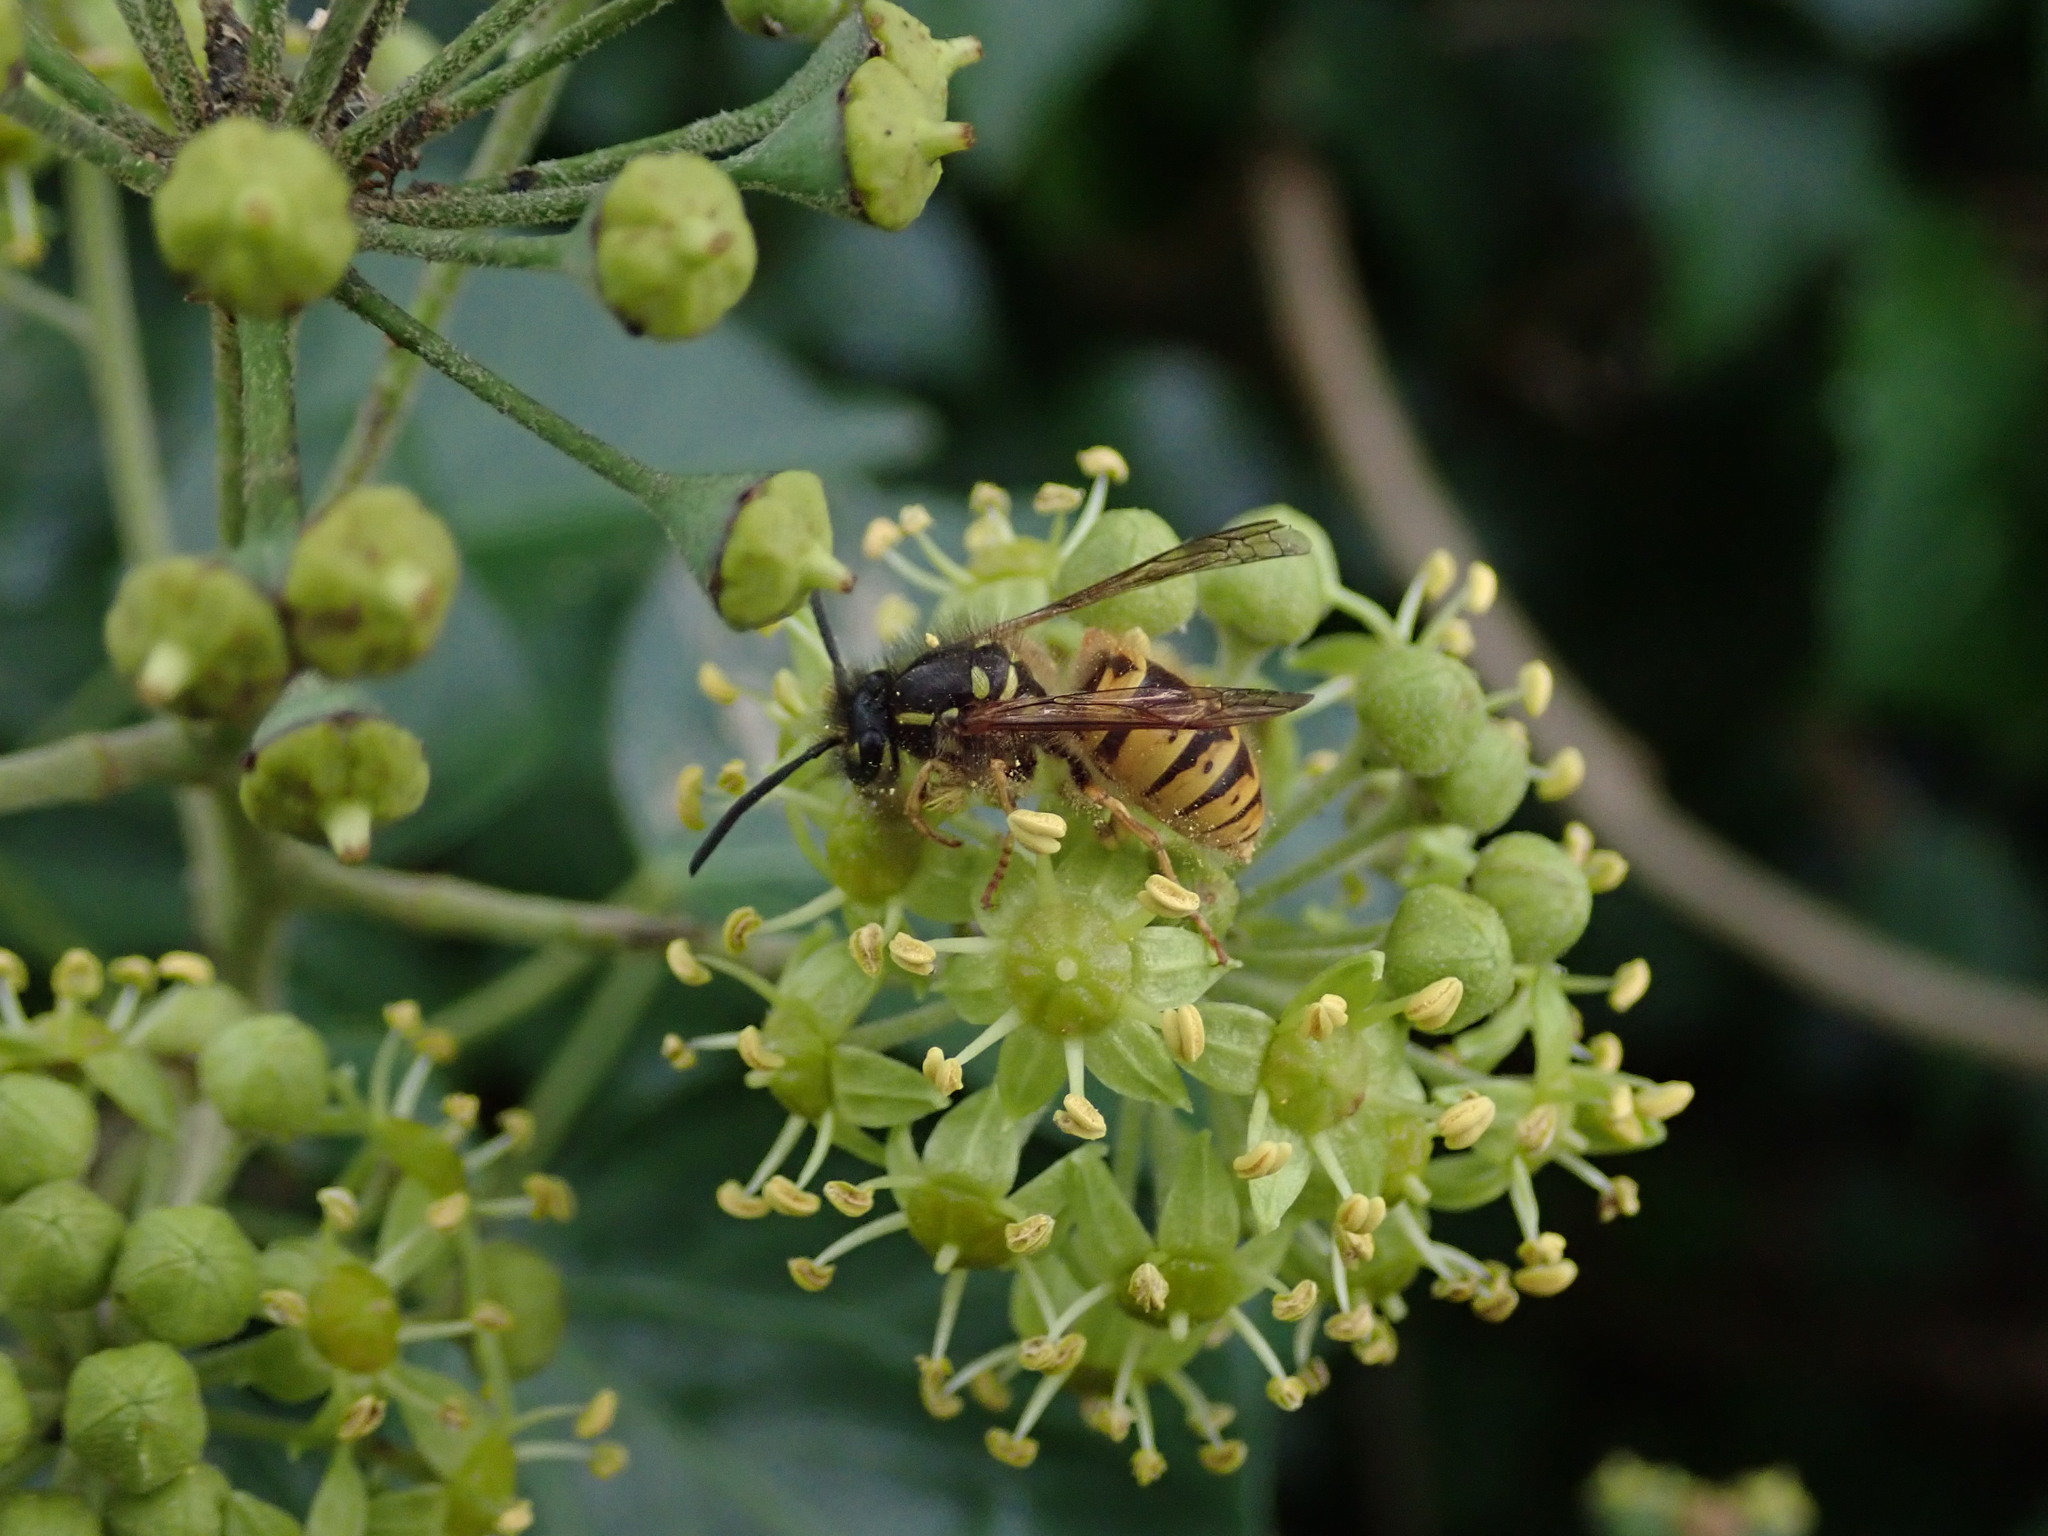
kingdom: Animalia
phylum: Arthropoda
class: Insecta
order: Hymenoptera
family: Vespidae
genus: Vespula
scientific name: Vespula vulgaris
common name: Common wasp
